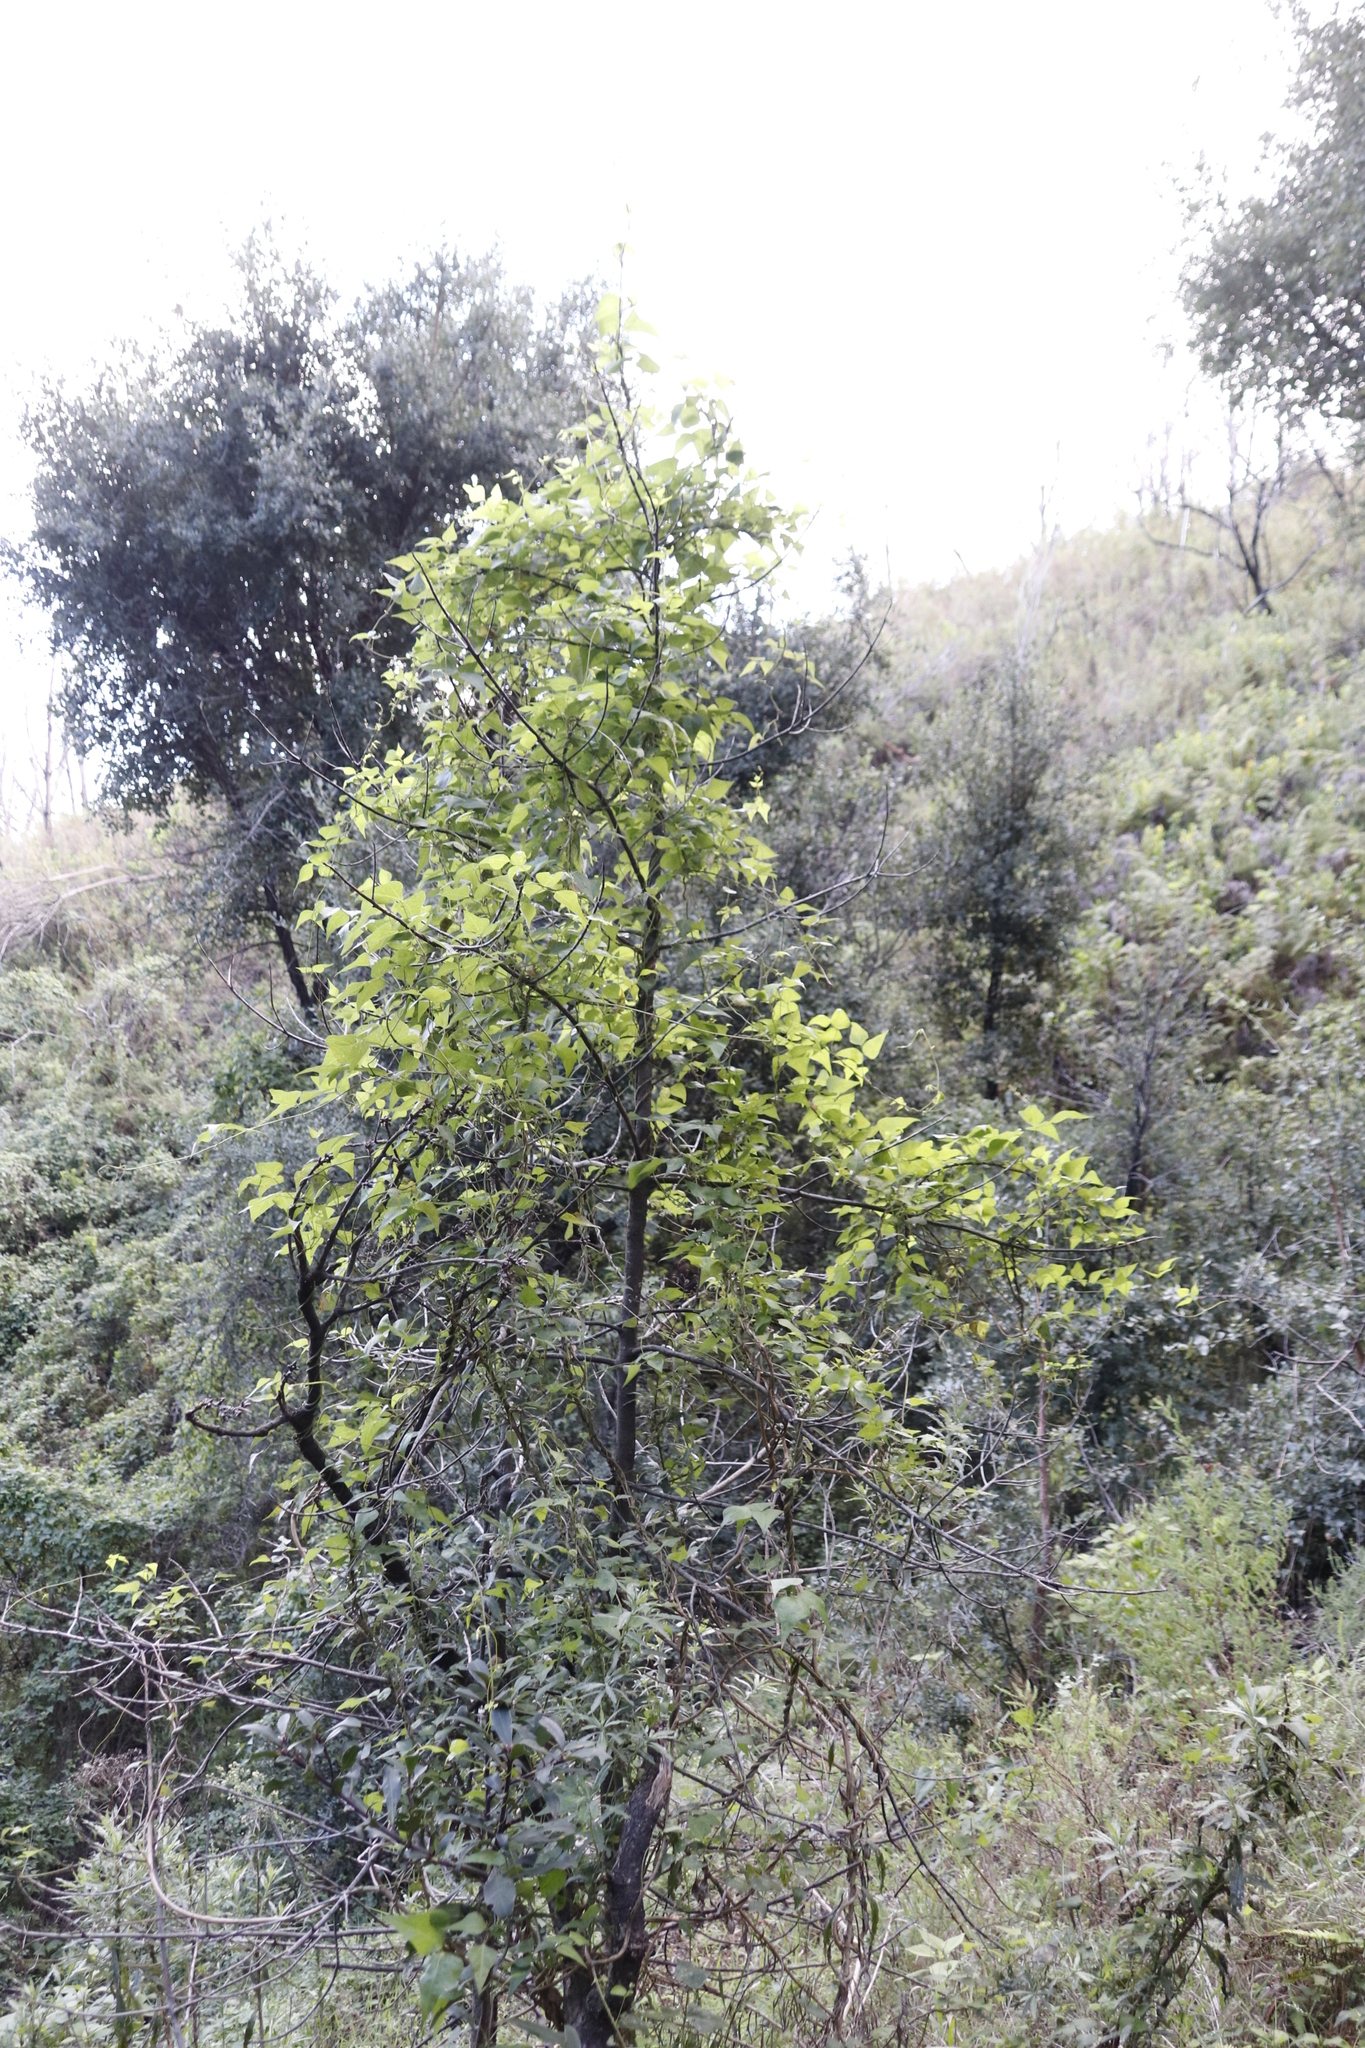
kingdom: Plantae
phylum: Tracheophyta
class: Magnoliopsida
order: Fabales
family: Fabaceae
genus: Dipogon
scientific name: Dipogon lignosus
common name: Okie bean
